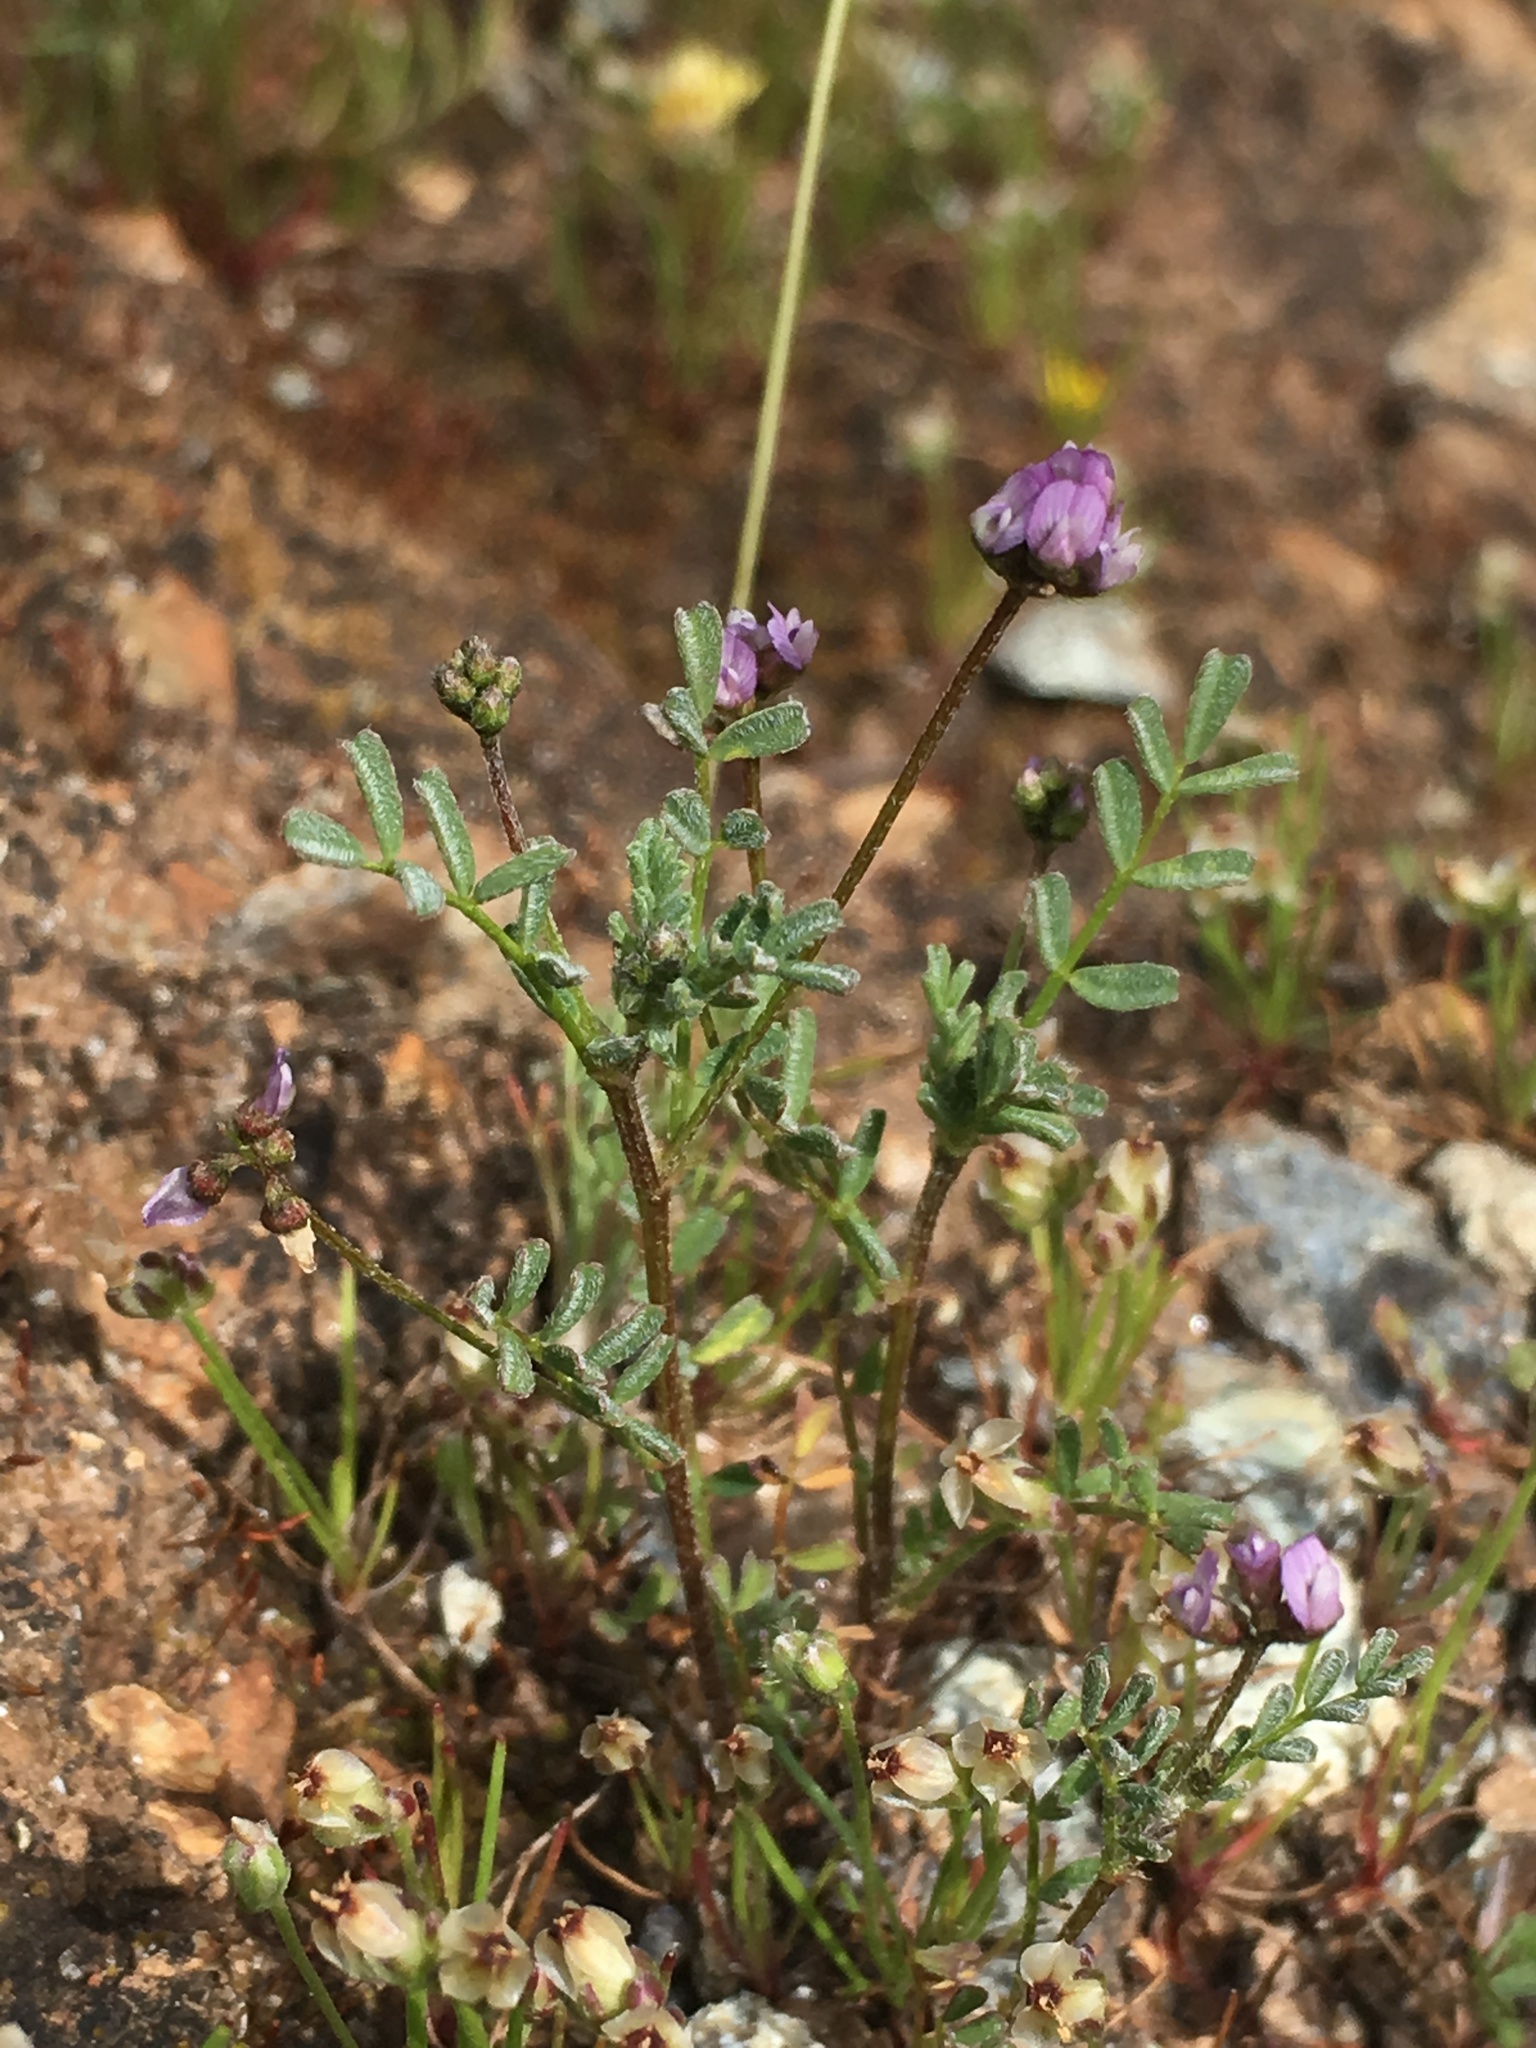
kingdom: Plantae
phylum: Tracheophyta
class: Magnoliopsida
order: Fabales
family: Fabaceae
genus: Astragalus
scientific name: Astragalus gambelianus
